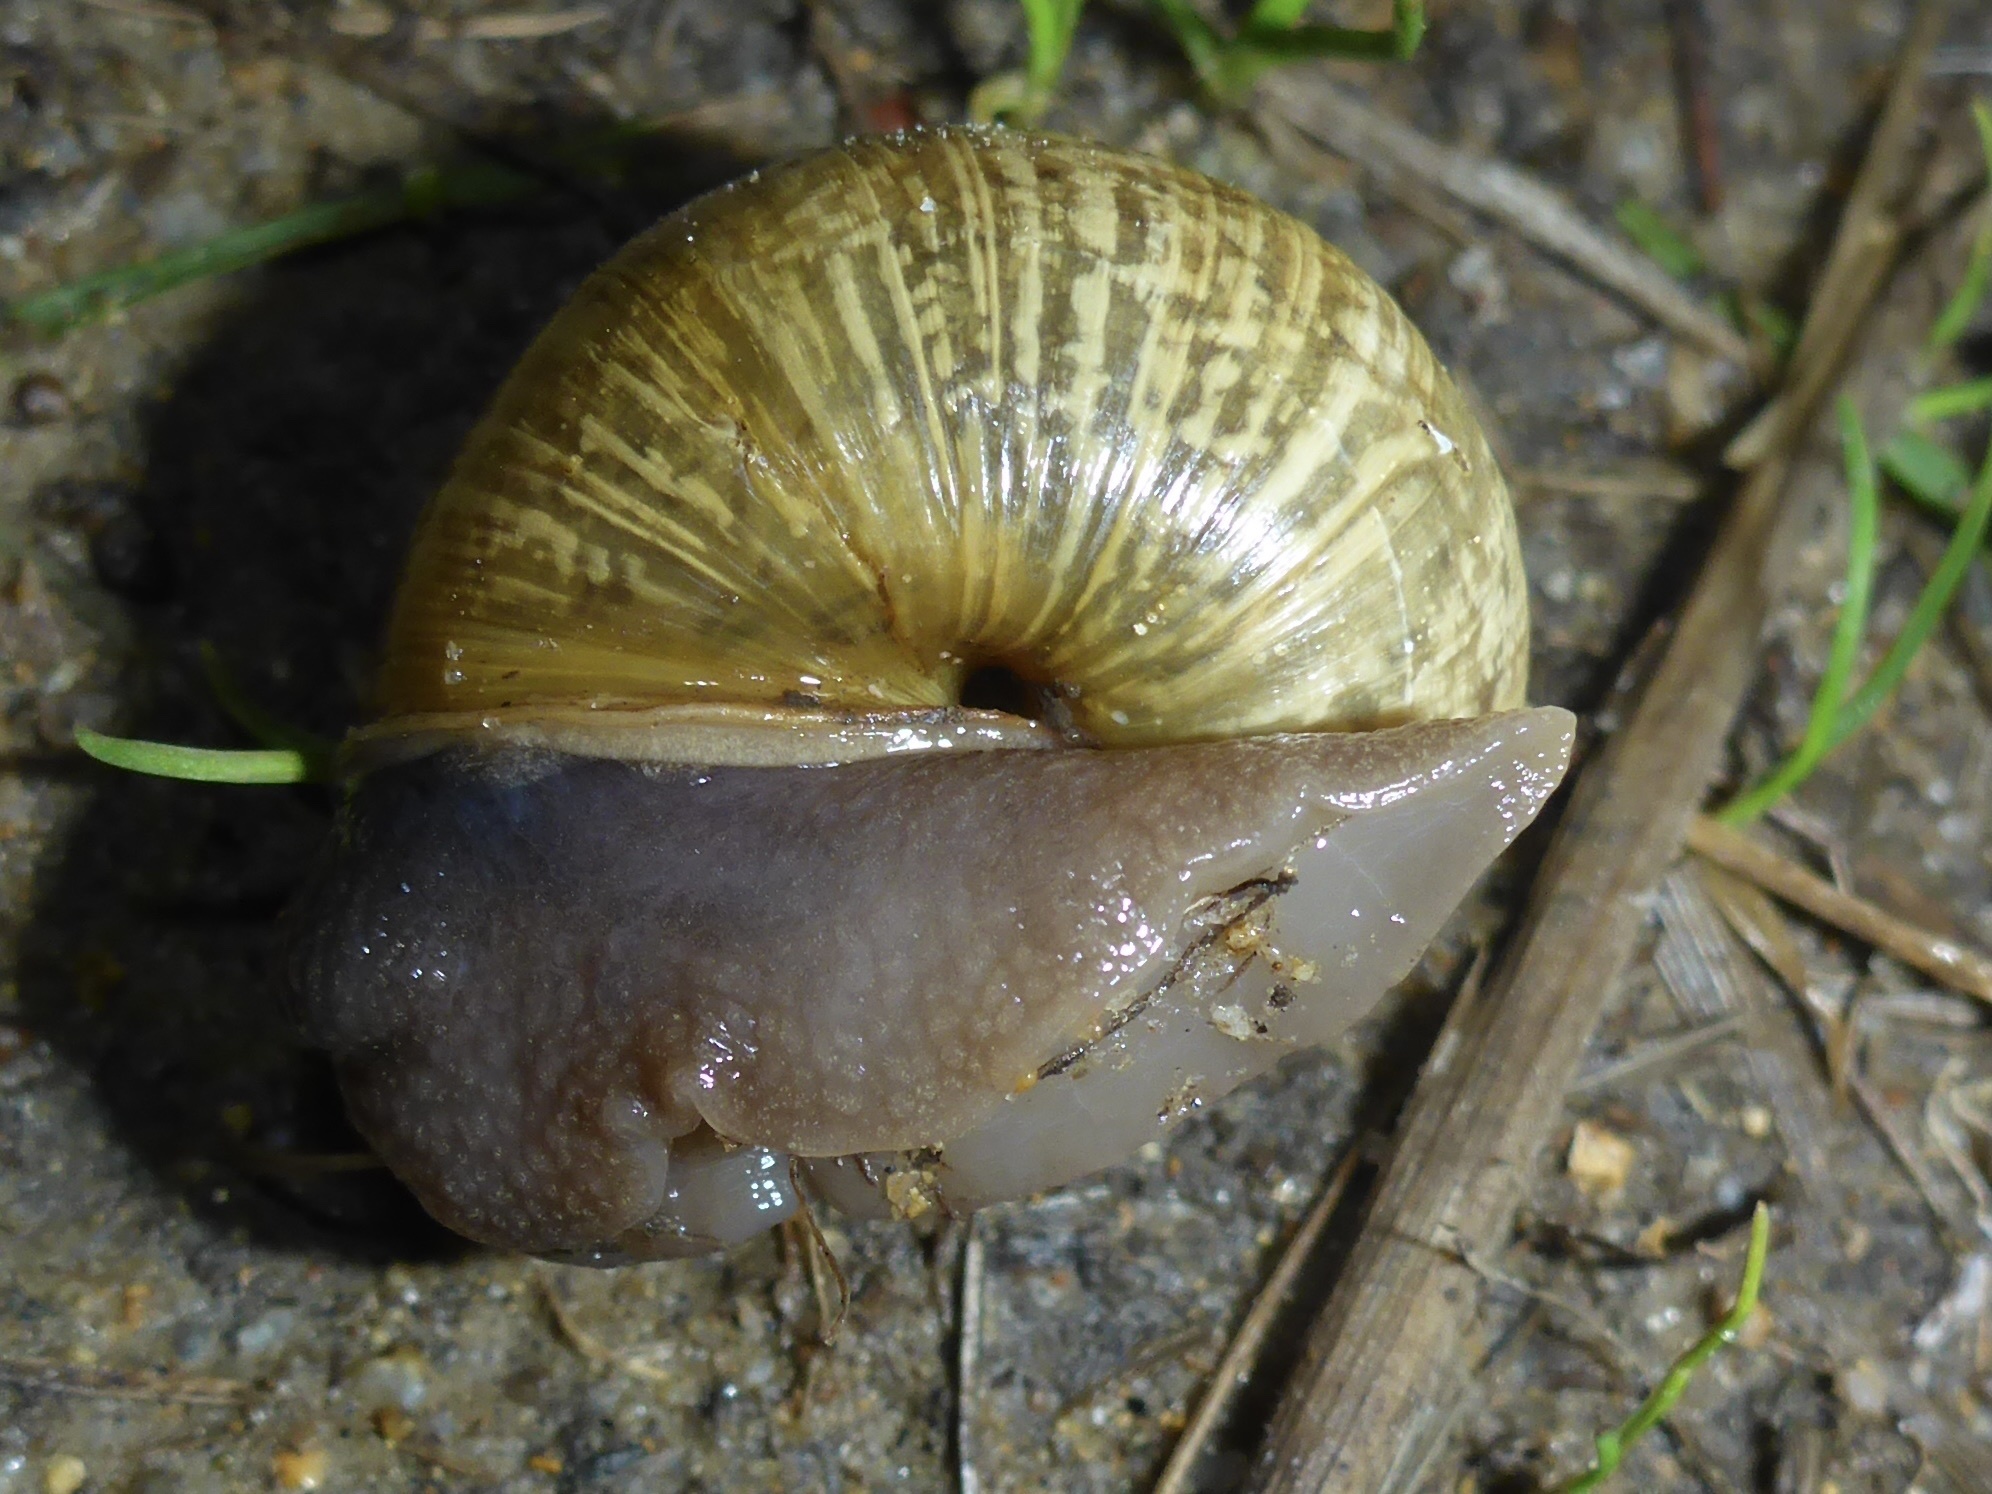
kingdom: Animalia
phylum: Mollusca
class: Gastropoda
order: Stylommatophora
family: Xanthonychidae
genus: Helminthoglypta
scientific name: Helminthoglypta nickliniana
